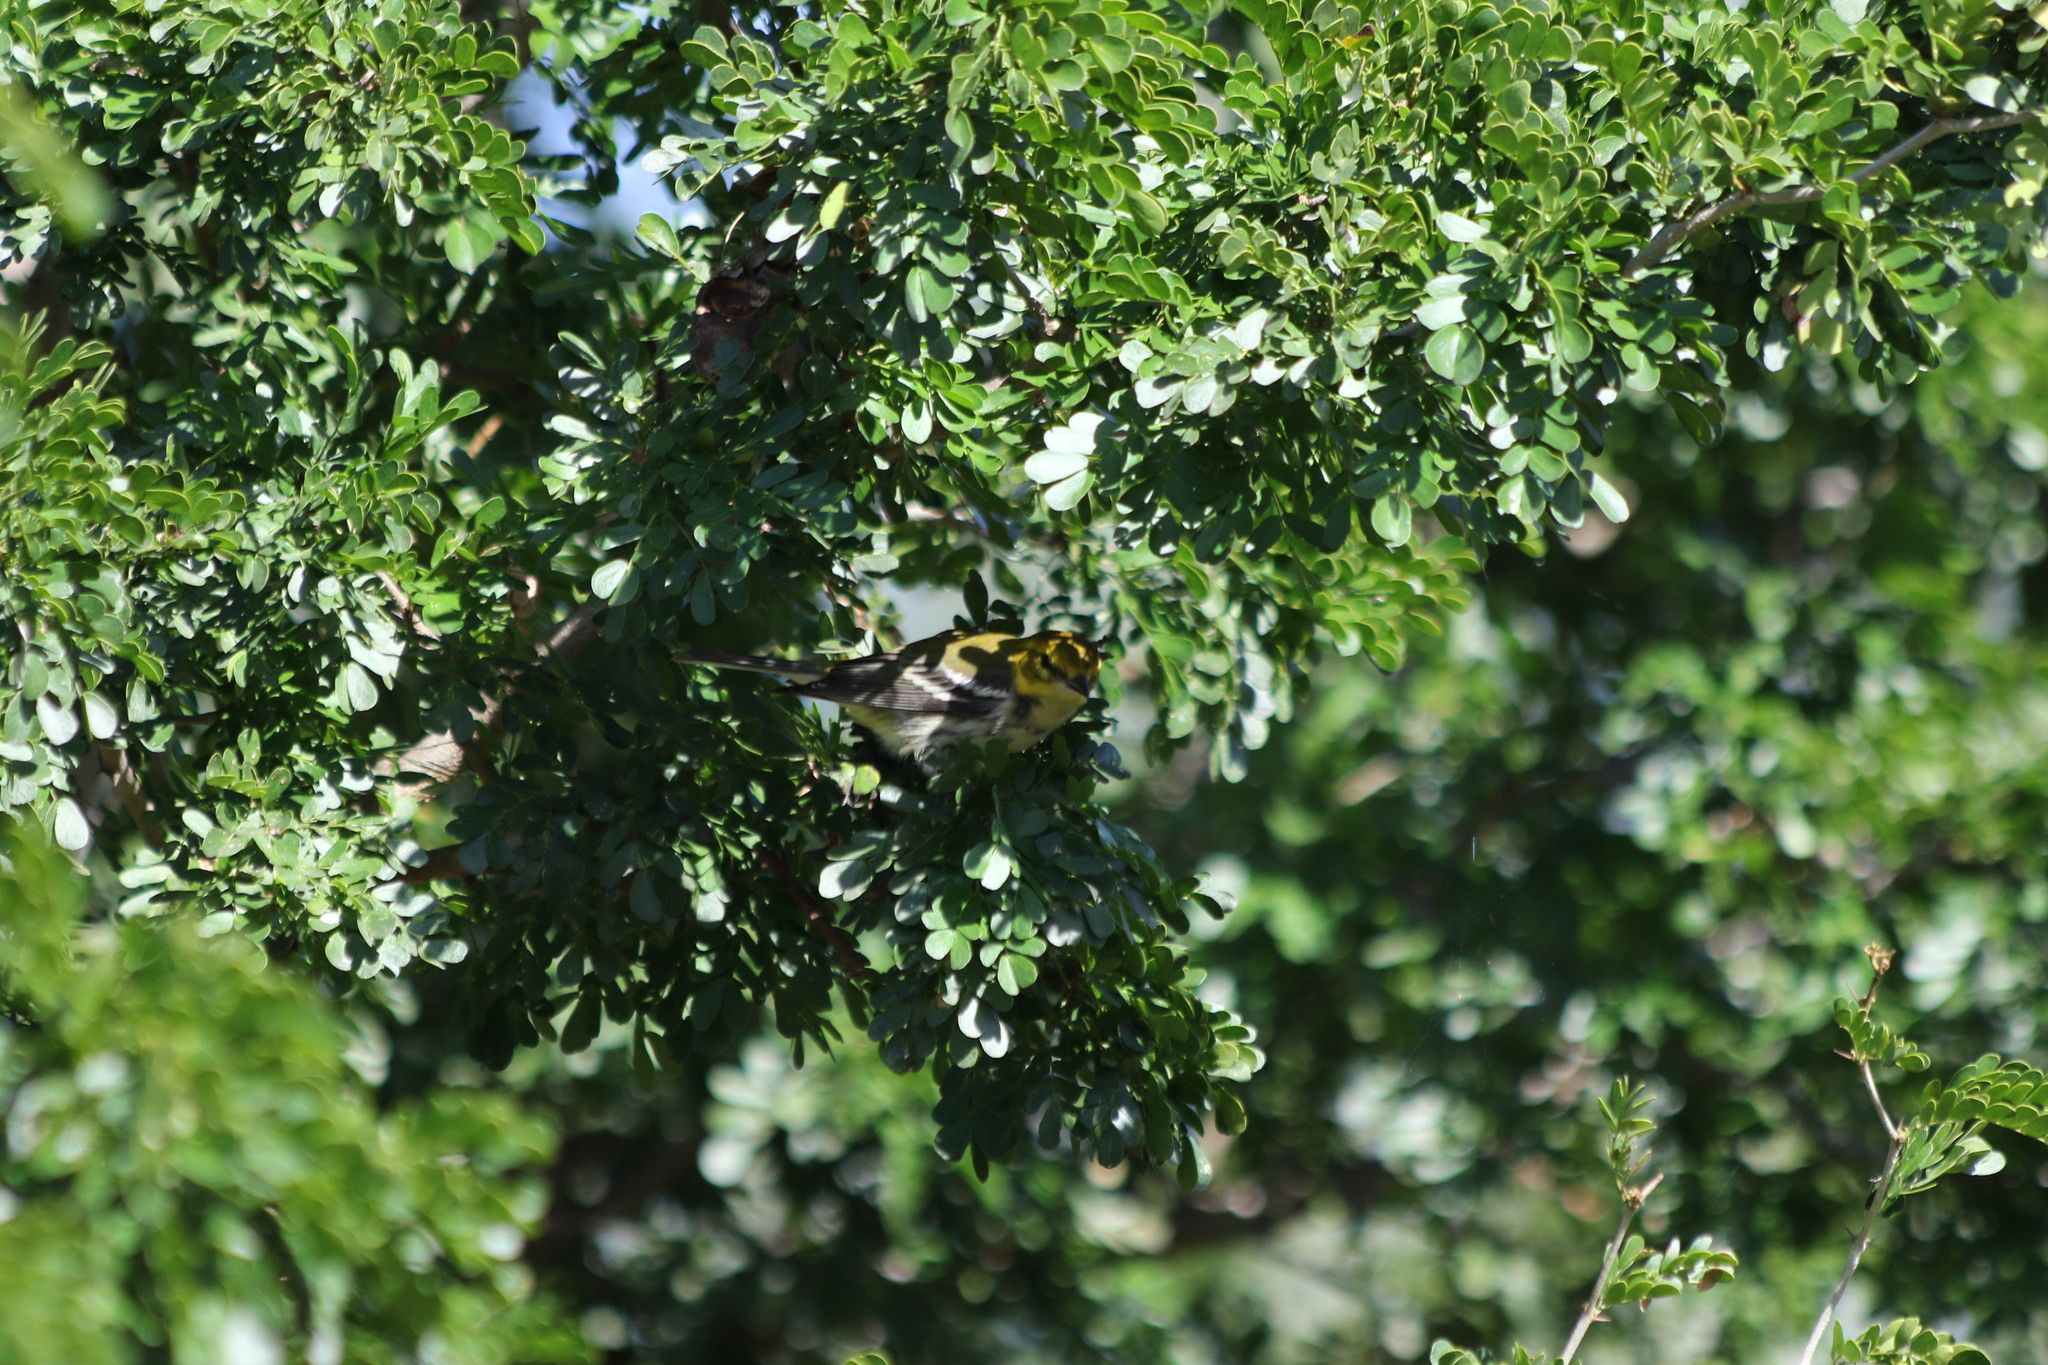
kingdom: Animalia
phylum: Chordata
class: Aves
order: Passeriformes
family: Parulidae
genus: Setophaga
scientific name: Setophaga virens
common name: Black-throated green warbler
